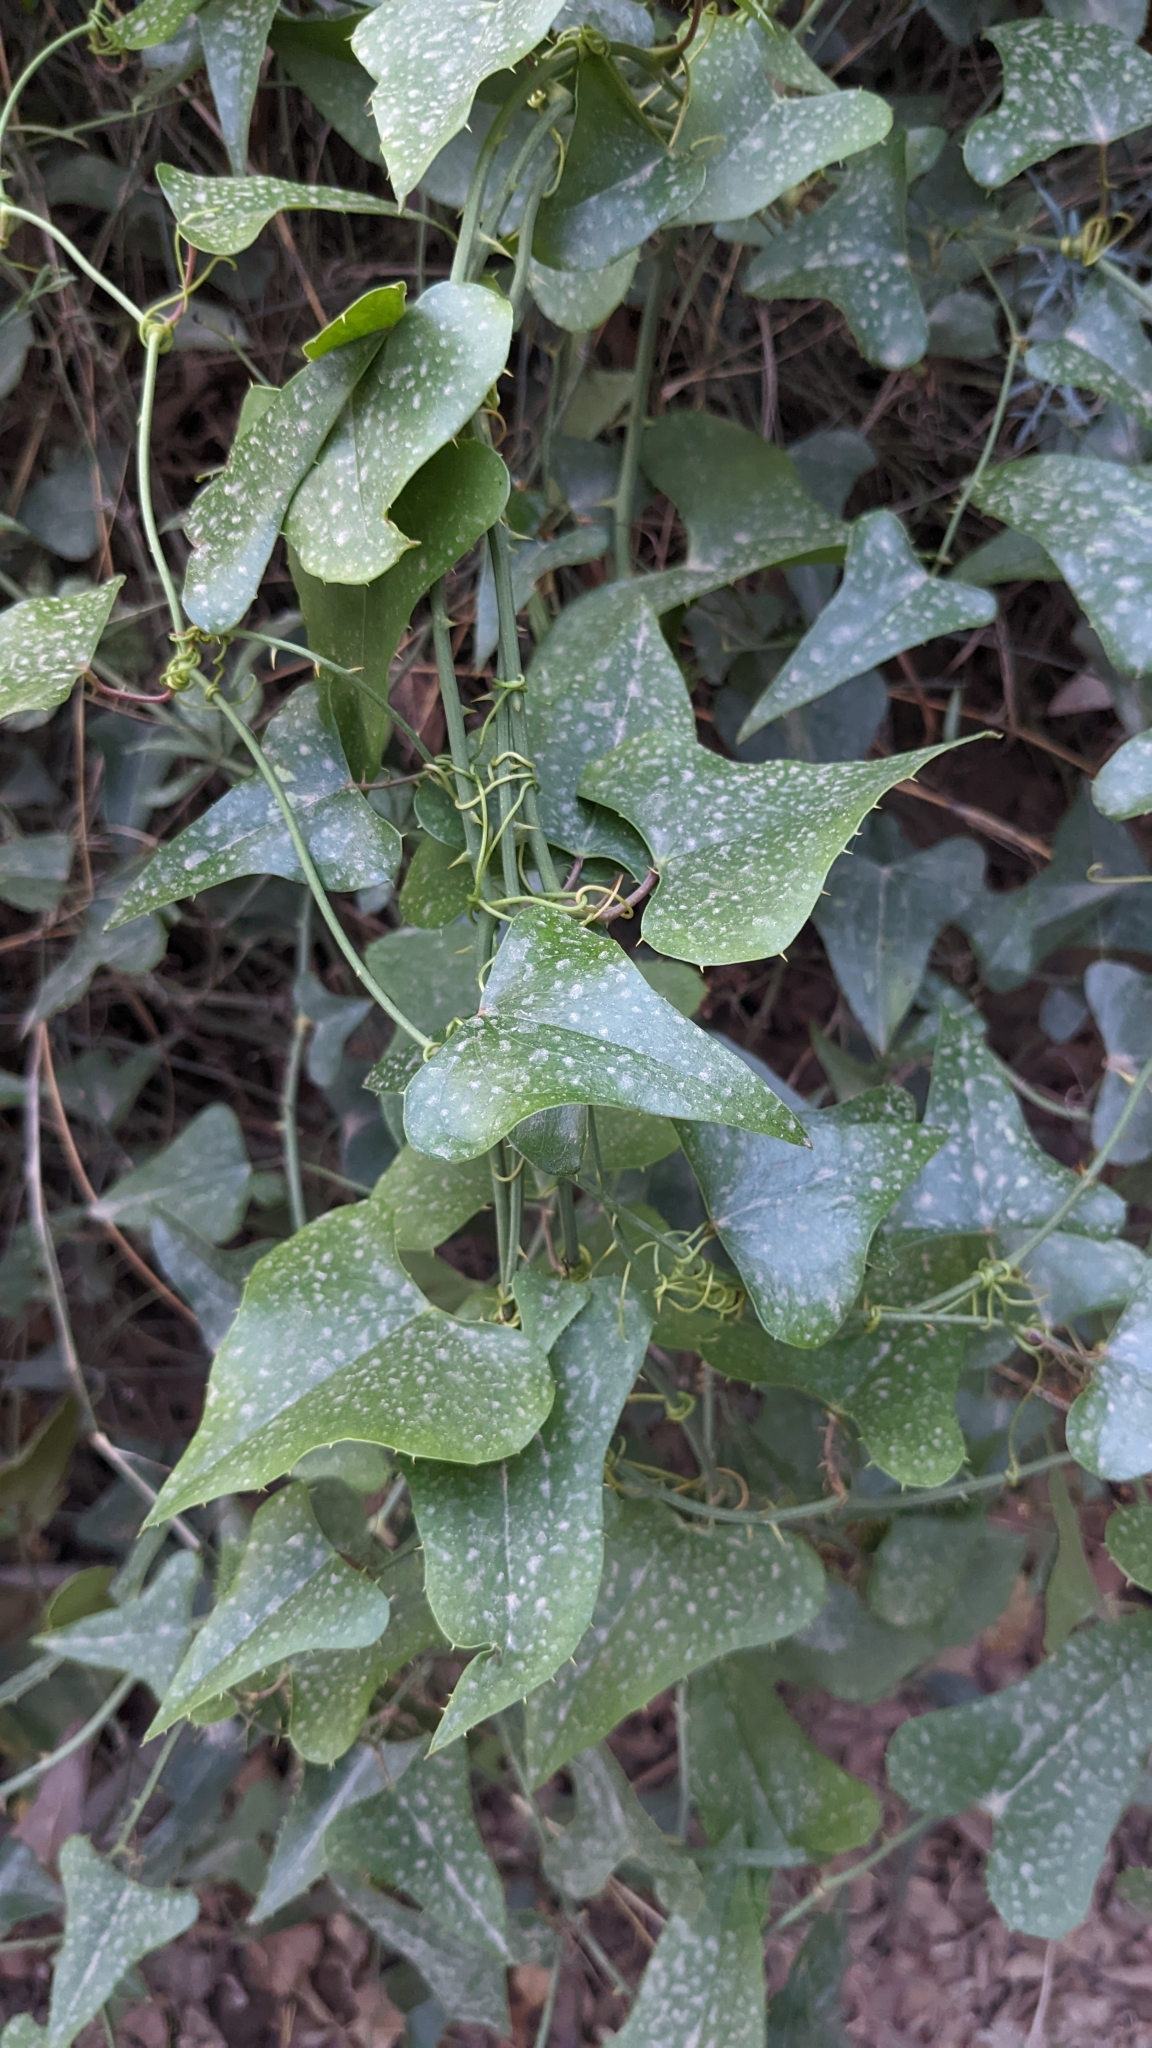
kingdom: Plantae
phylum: Tracheophyta
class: Liliopsida
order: Liliales
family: Smilacaceae
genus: Smilax
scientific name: Smilax aspera
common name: Common smilax
